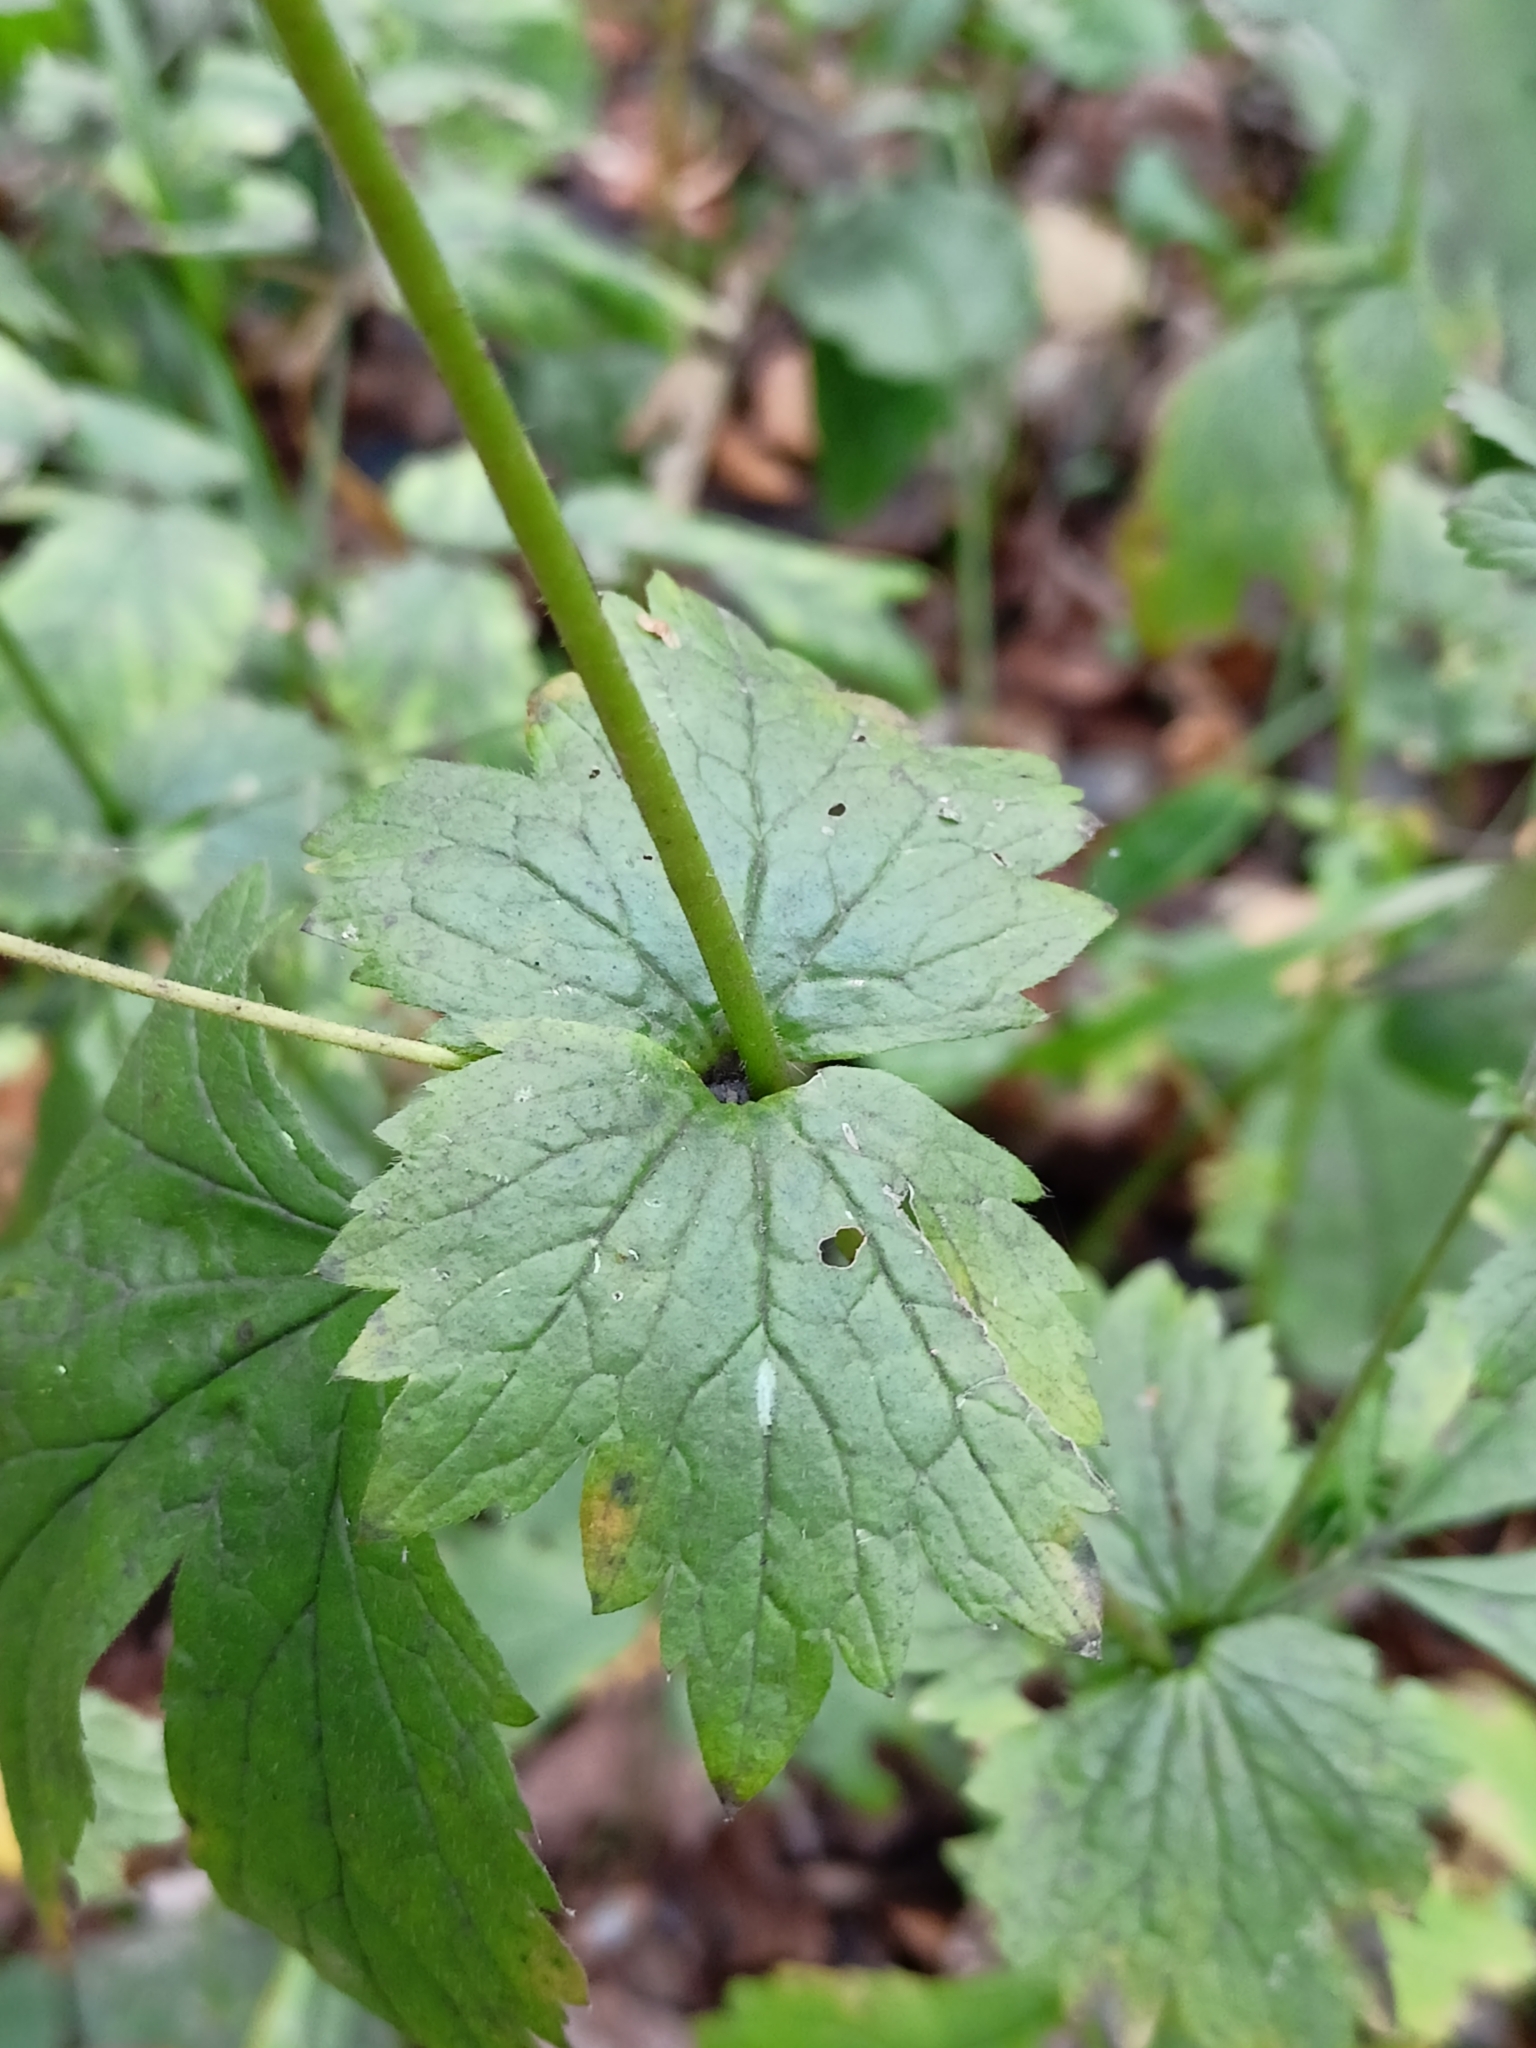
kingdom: Plantae
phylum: Tracheophyta
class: Magnoliopsida
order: Rosales
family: Rosaceae
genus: Geum
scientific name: Geum urbanum
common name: Wood avens
